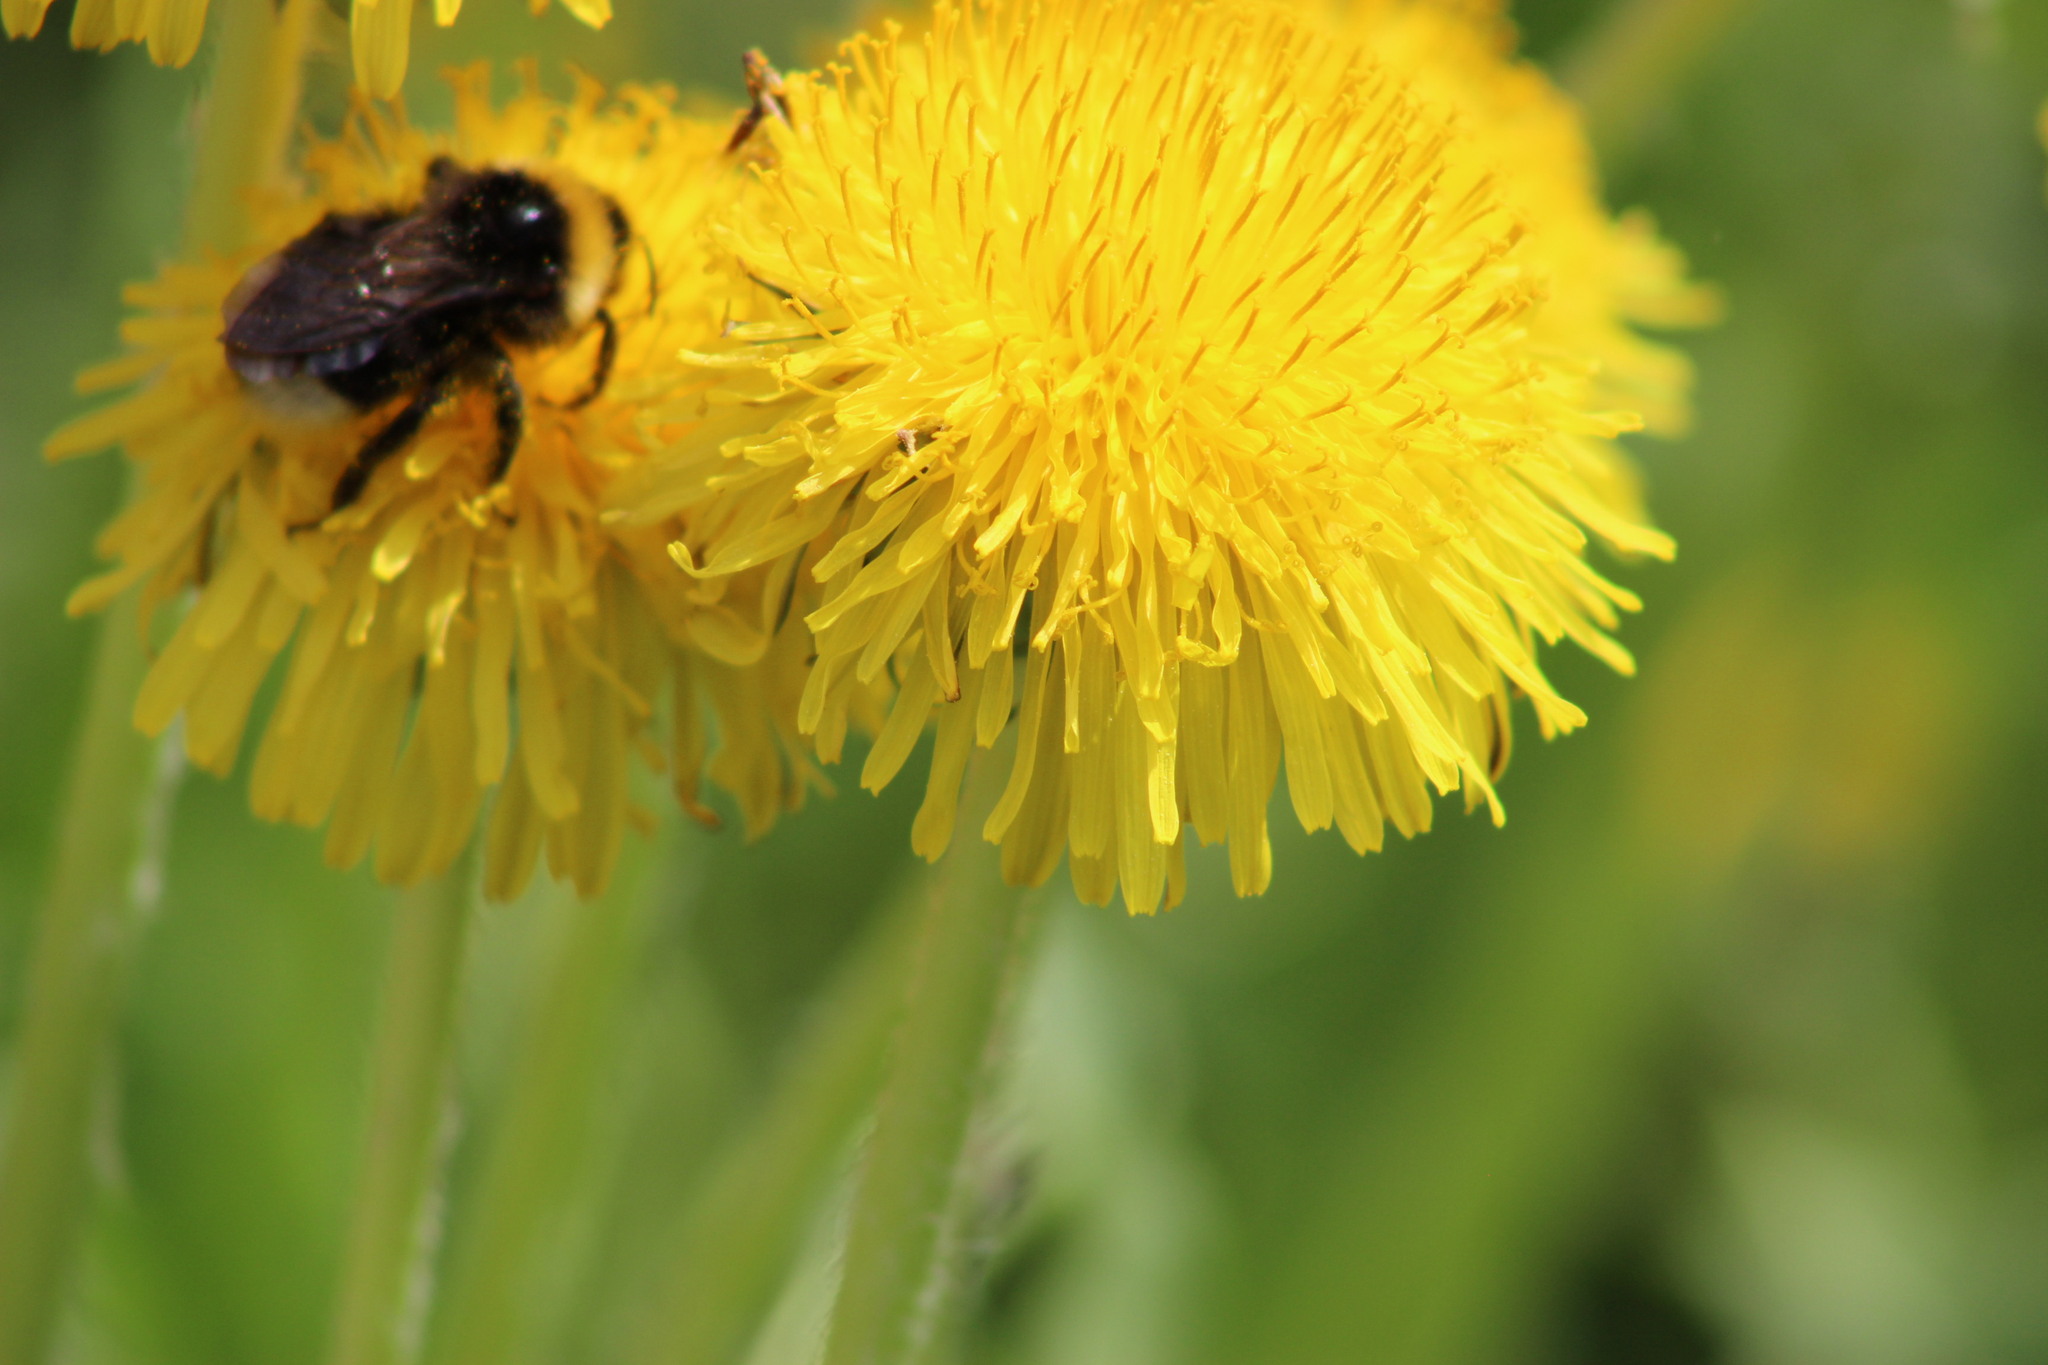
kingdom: Animalia
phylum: Arthropoda
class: Insecta
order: Hymenoptera
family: Apidae
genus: Bombus
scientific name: Bombus bohemicus
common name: Gypsy cuckoo bee
